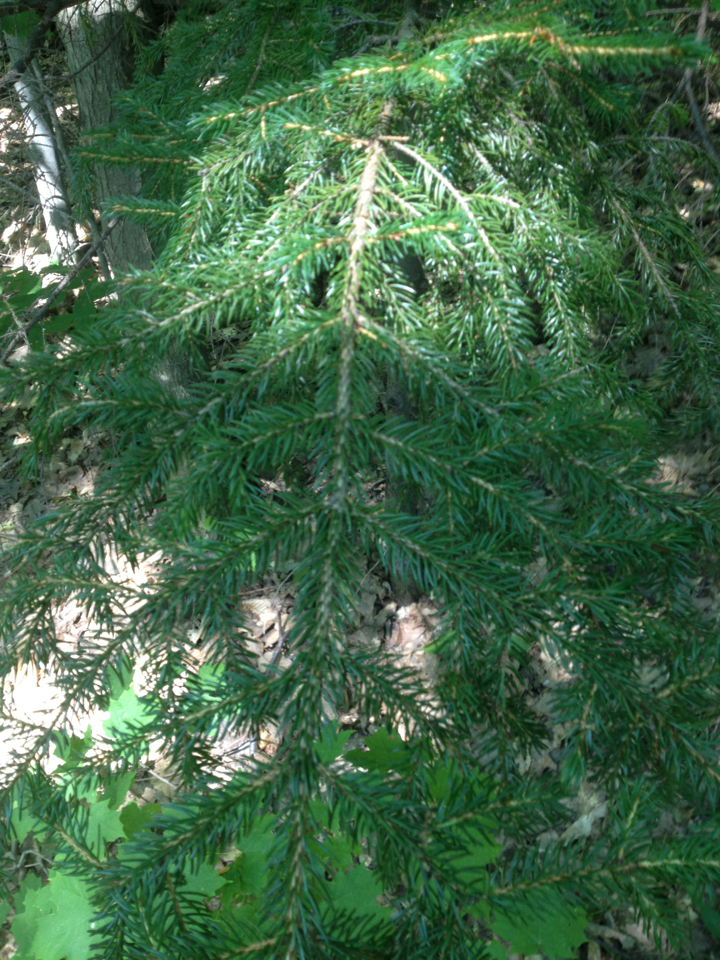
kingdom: Plantae
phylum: Tracheophyta
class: Pinopsida
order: Pinales
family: Pinaceae
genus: Picea
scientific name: Picea rubens
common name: Red spruce
